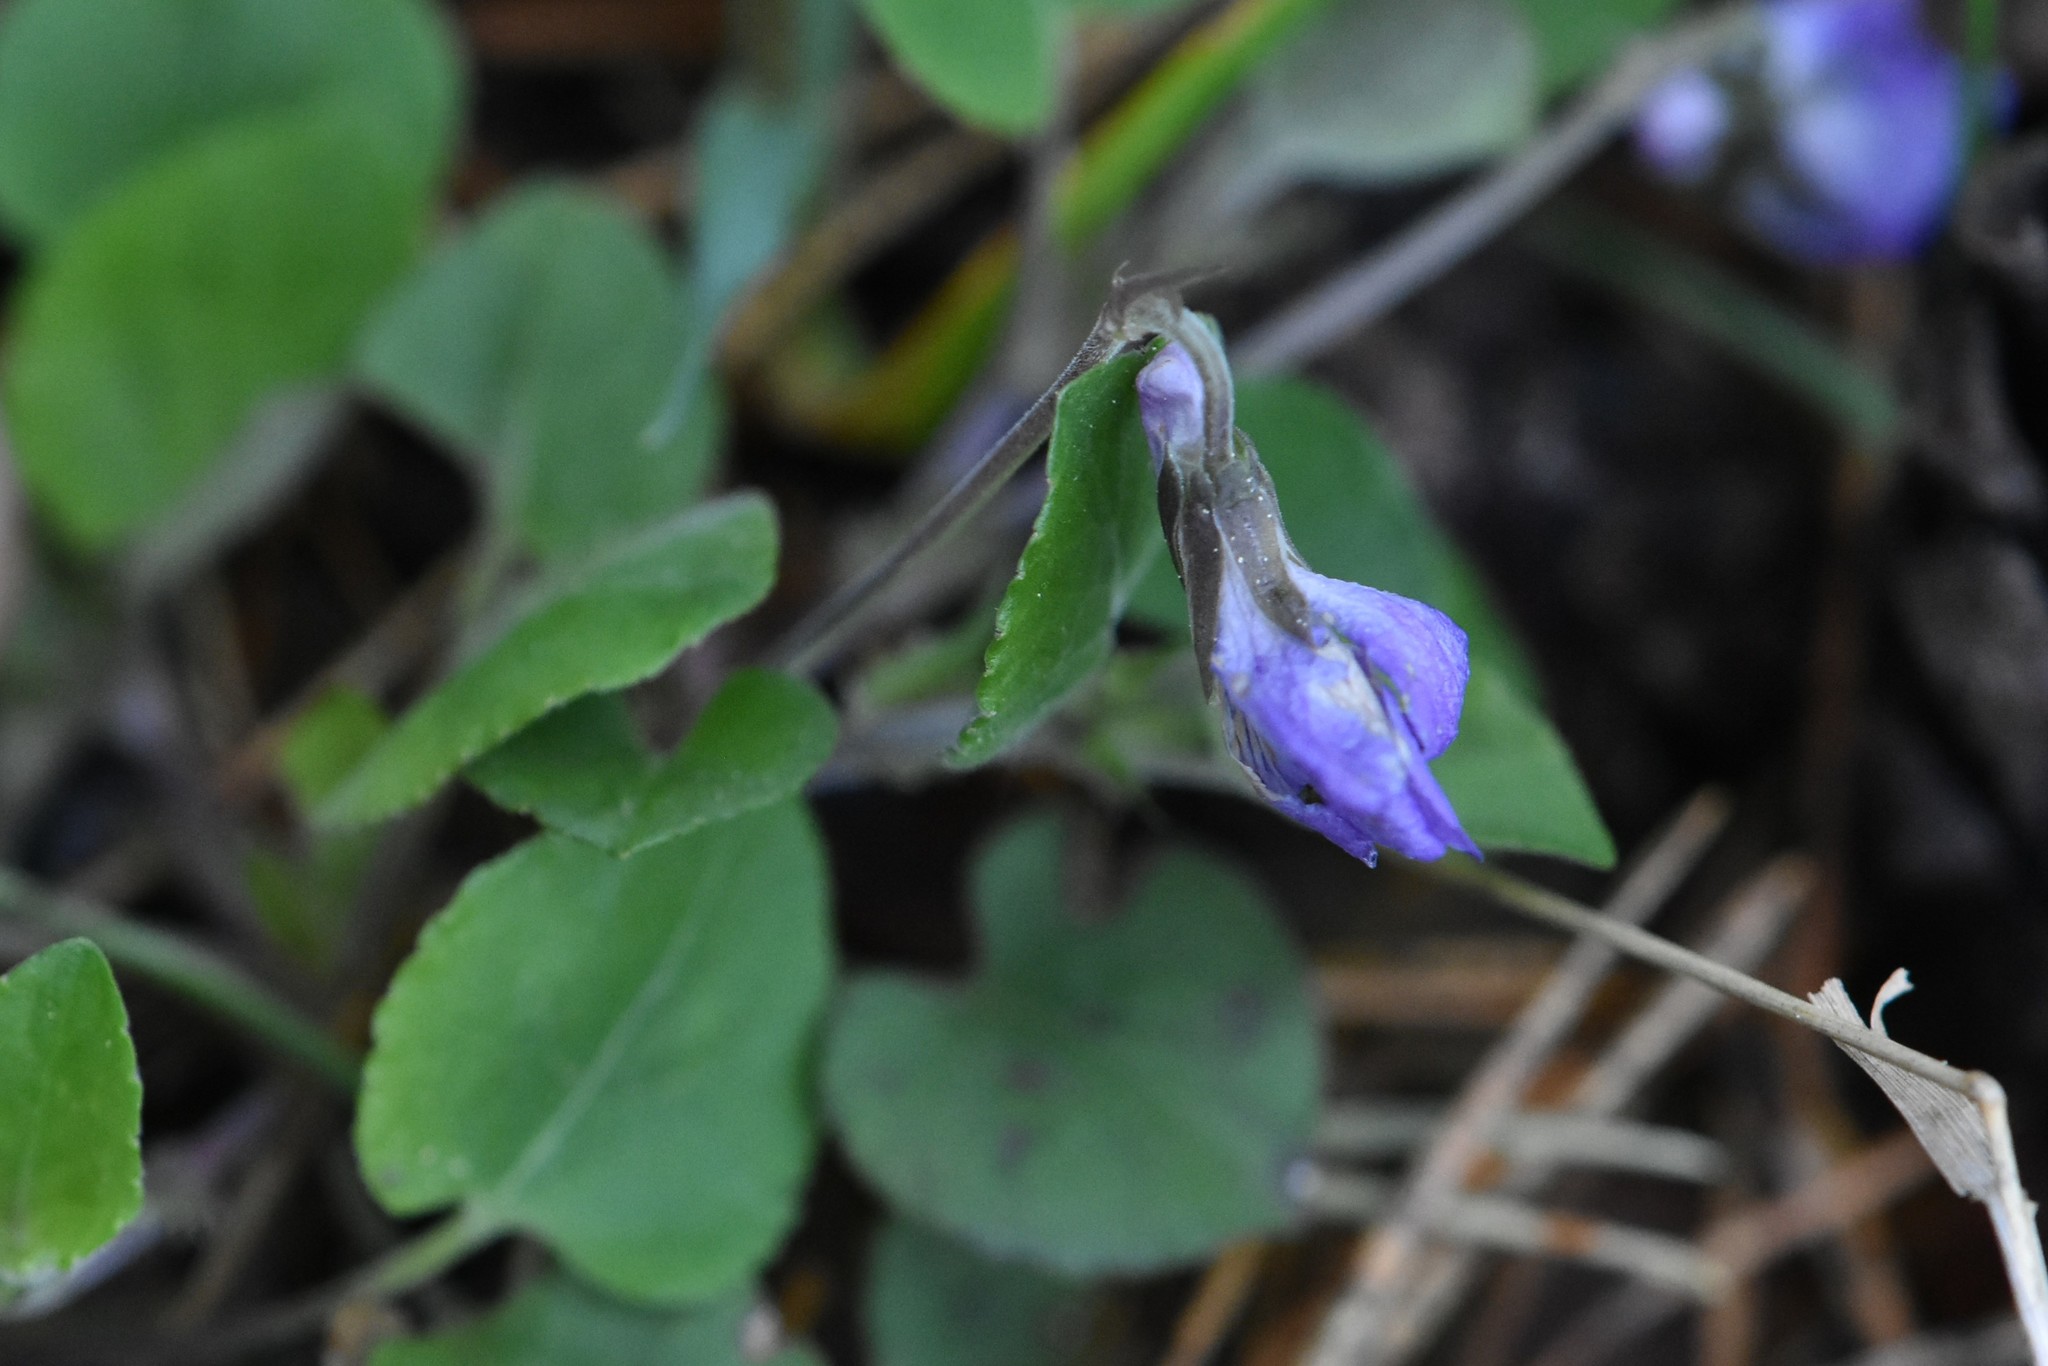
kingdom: Plantae
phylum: Tracheophyta
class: Magnoliopsida
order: Malpighiales
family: Violaceae
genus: Viola
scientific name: Viola rupestris
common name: Teesdale violet
